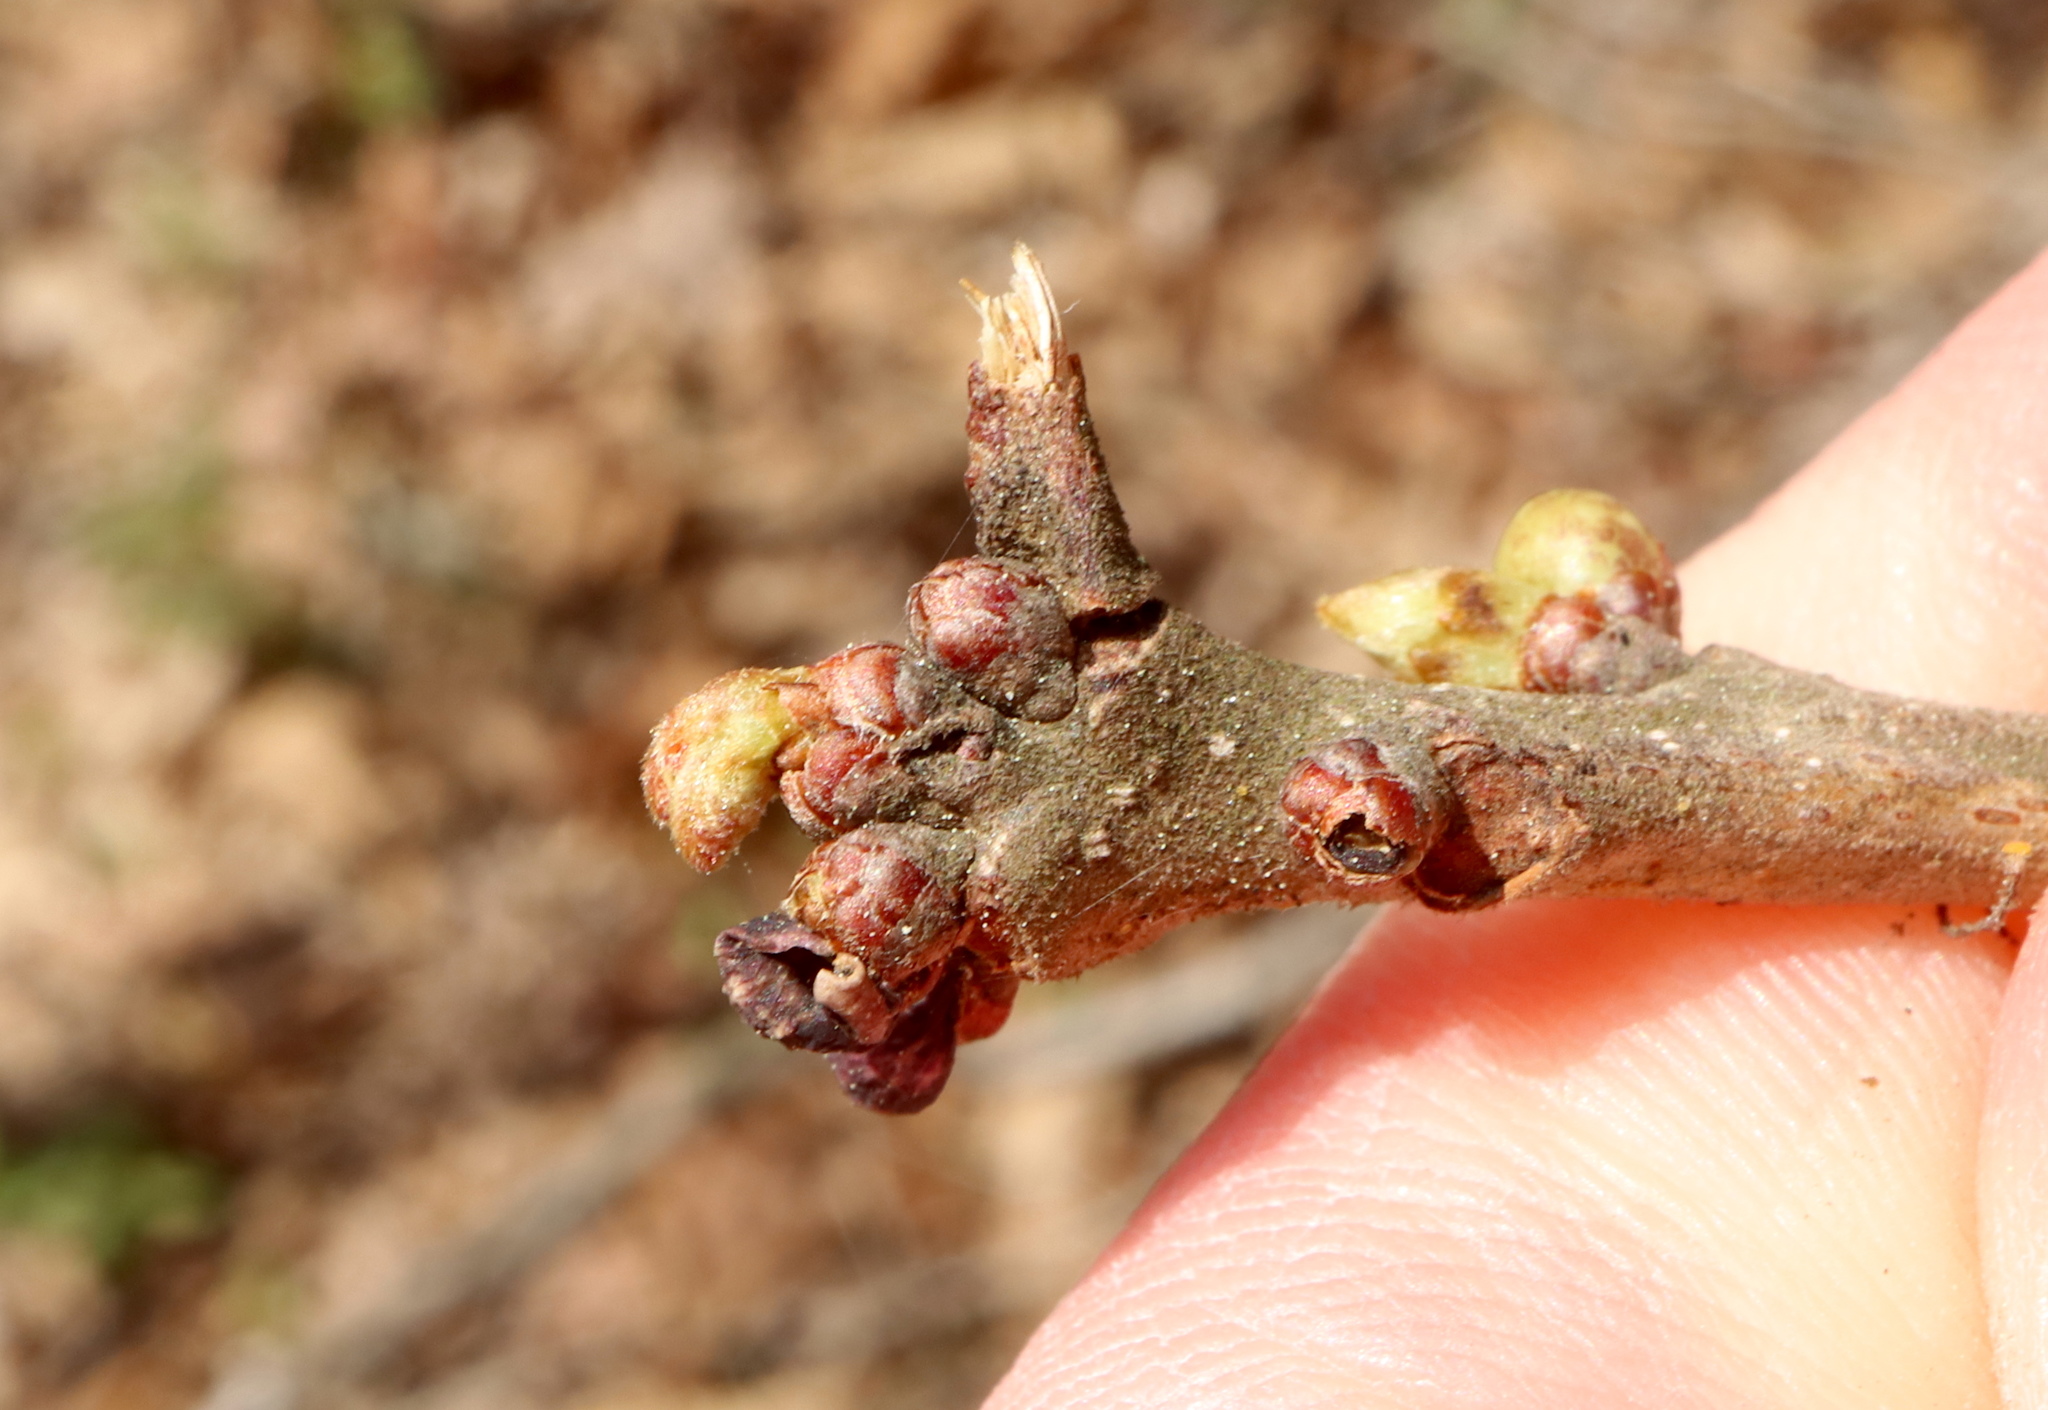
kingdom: Animalia
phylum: Arthropoda
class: Insecta
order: Hymenoptera
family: Cynipidae
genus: Neuroterus
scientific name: Neuroterus
